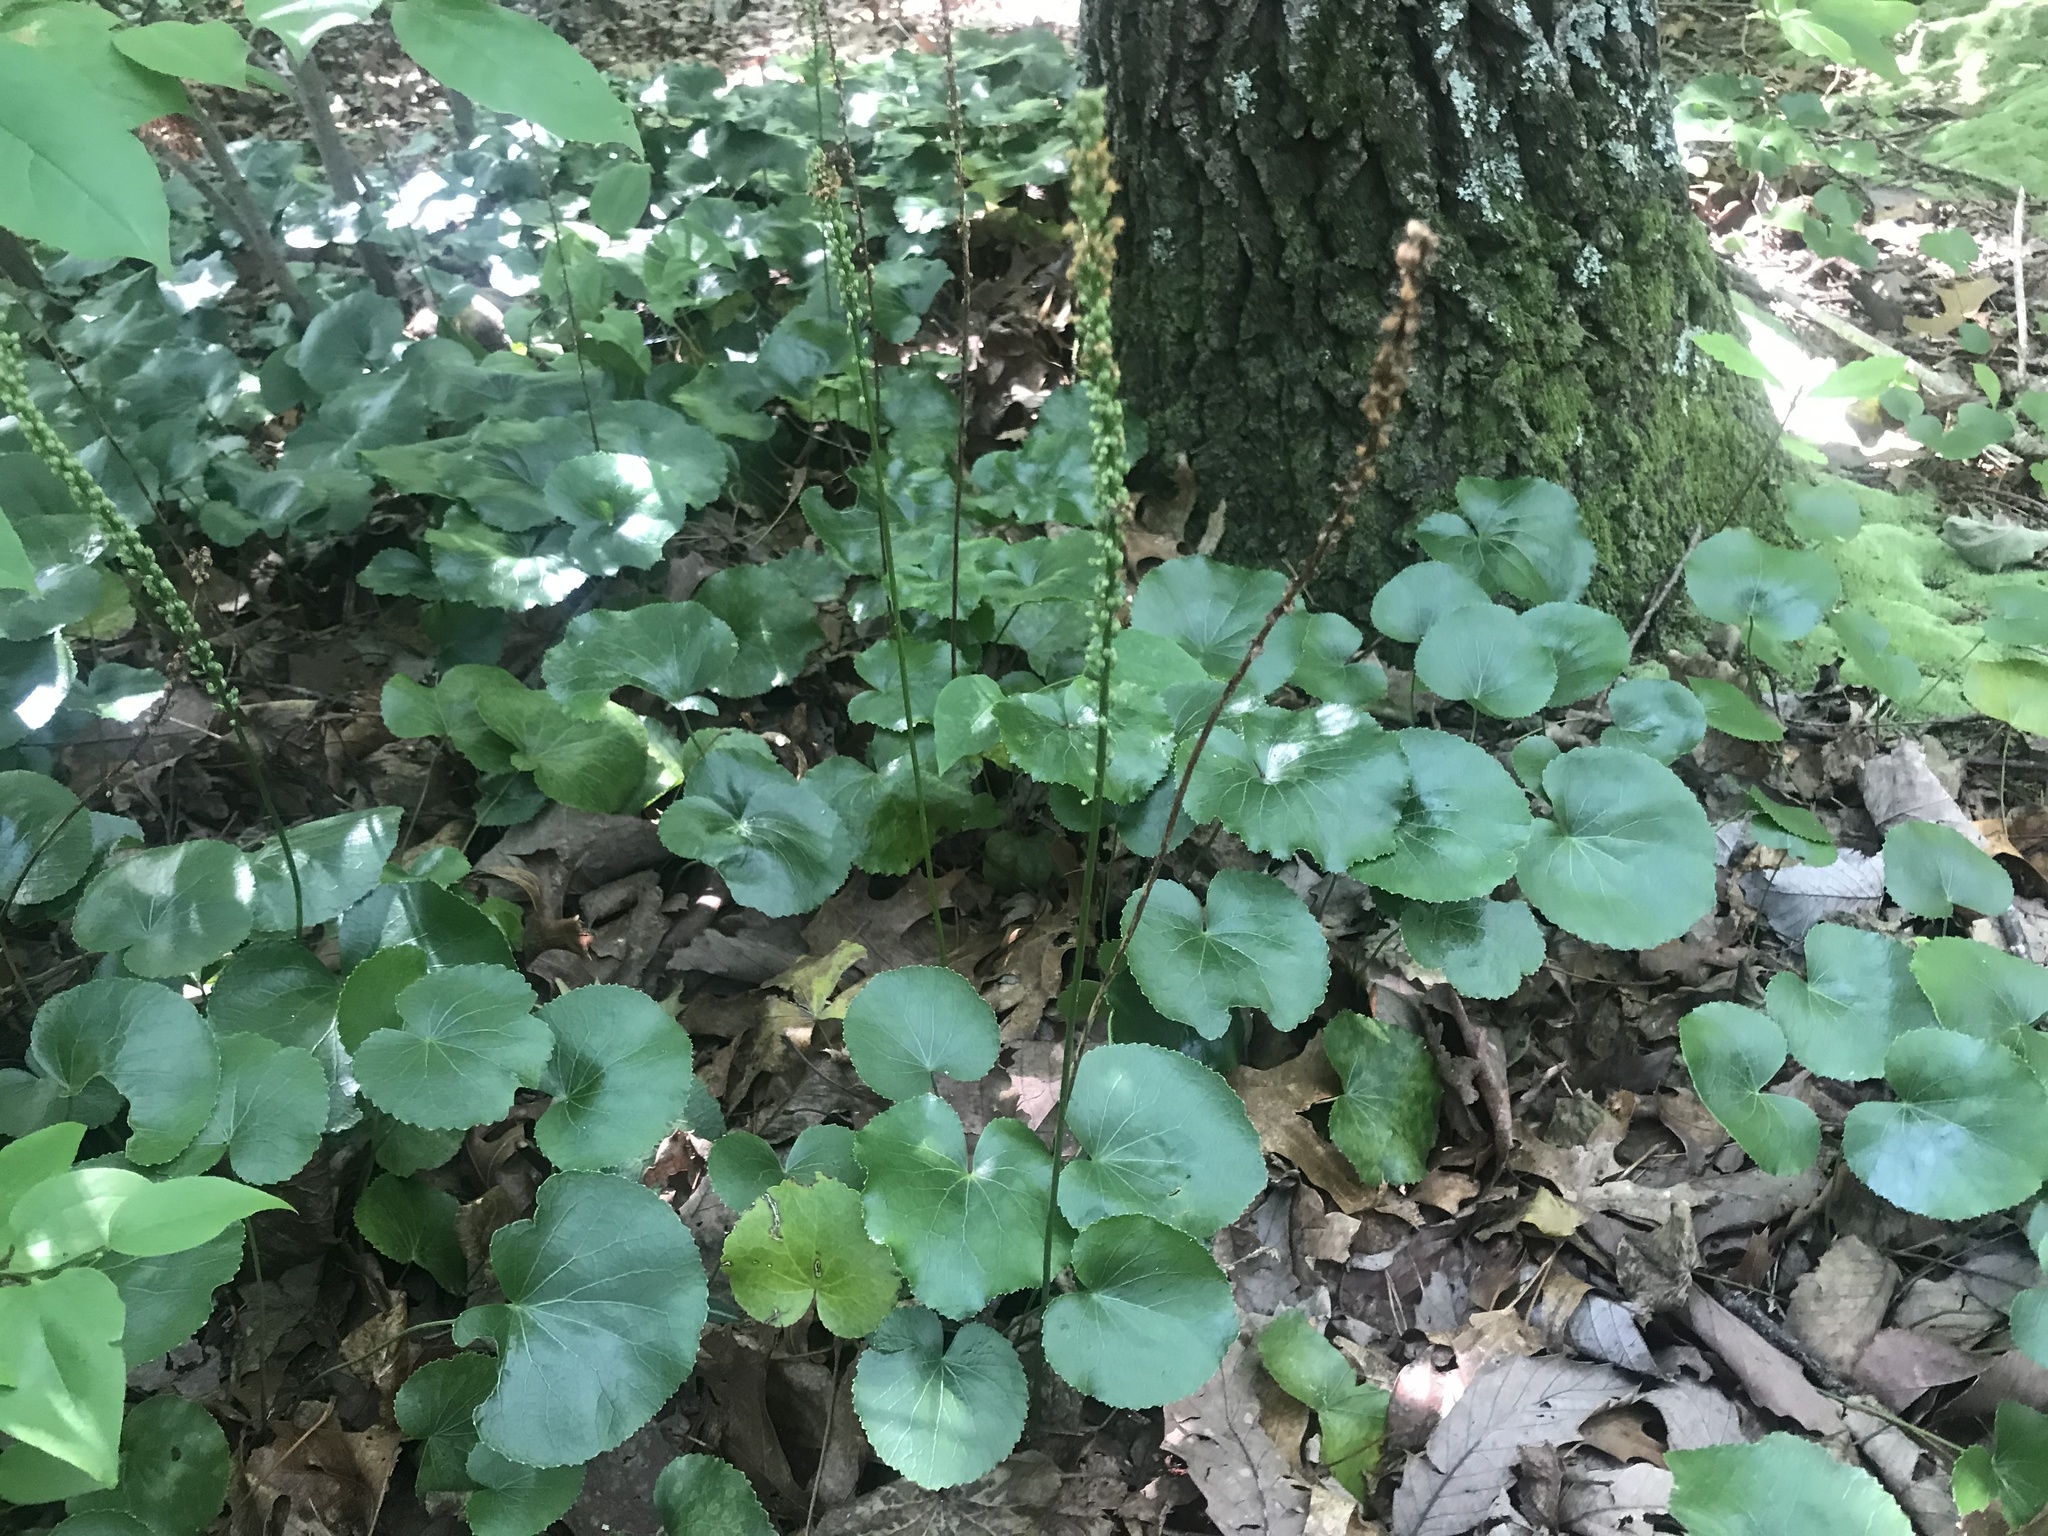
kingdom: Plantae
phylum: Tracheophyta
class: Magnoliopsida
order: Ericales
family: Diapensiaceae
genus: Galax
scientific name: Galax urceolata
